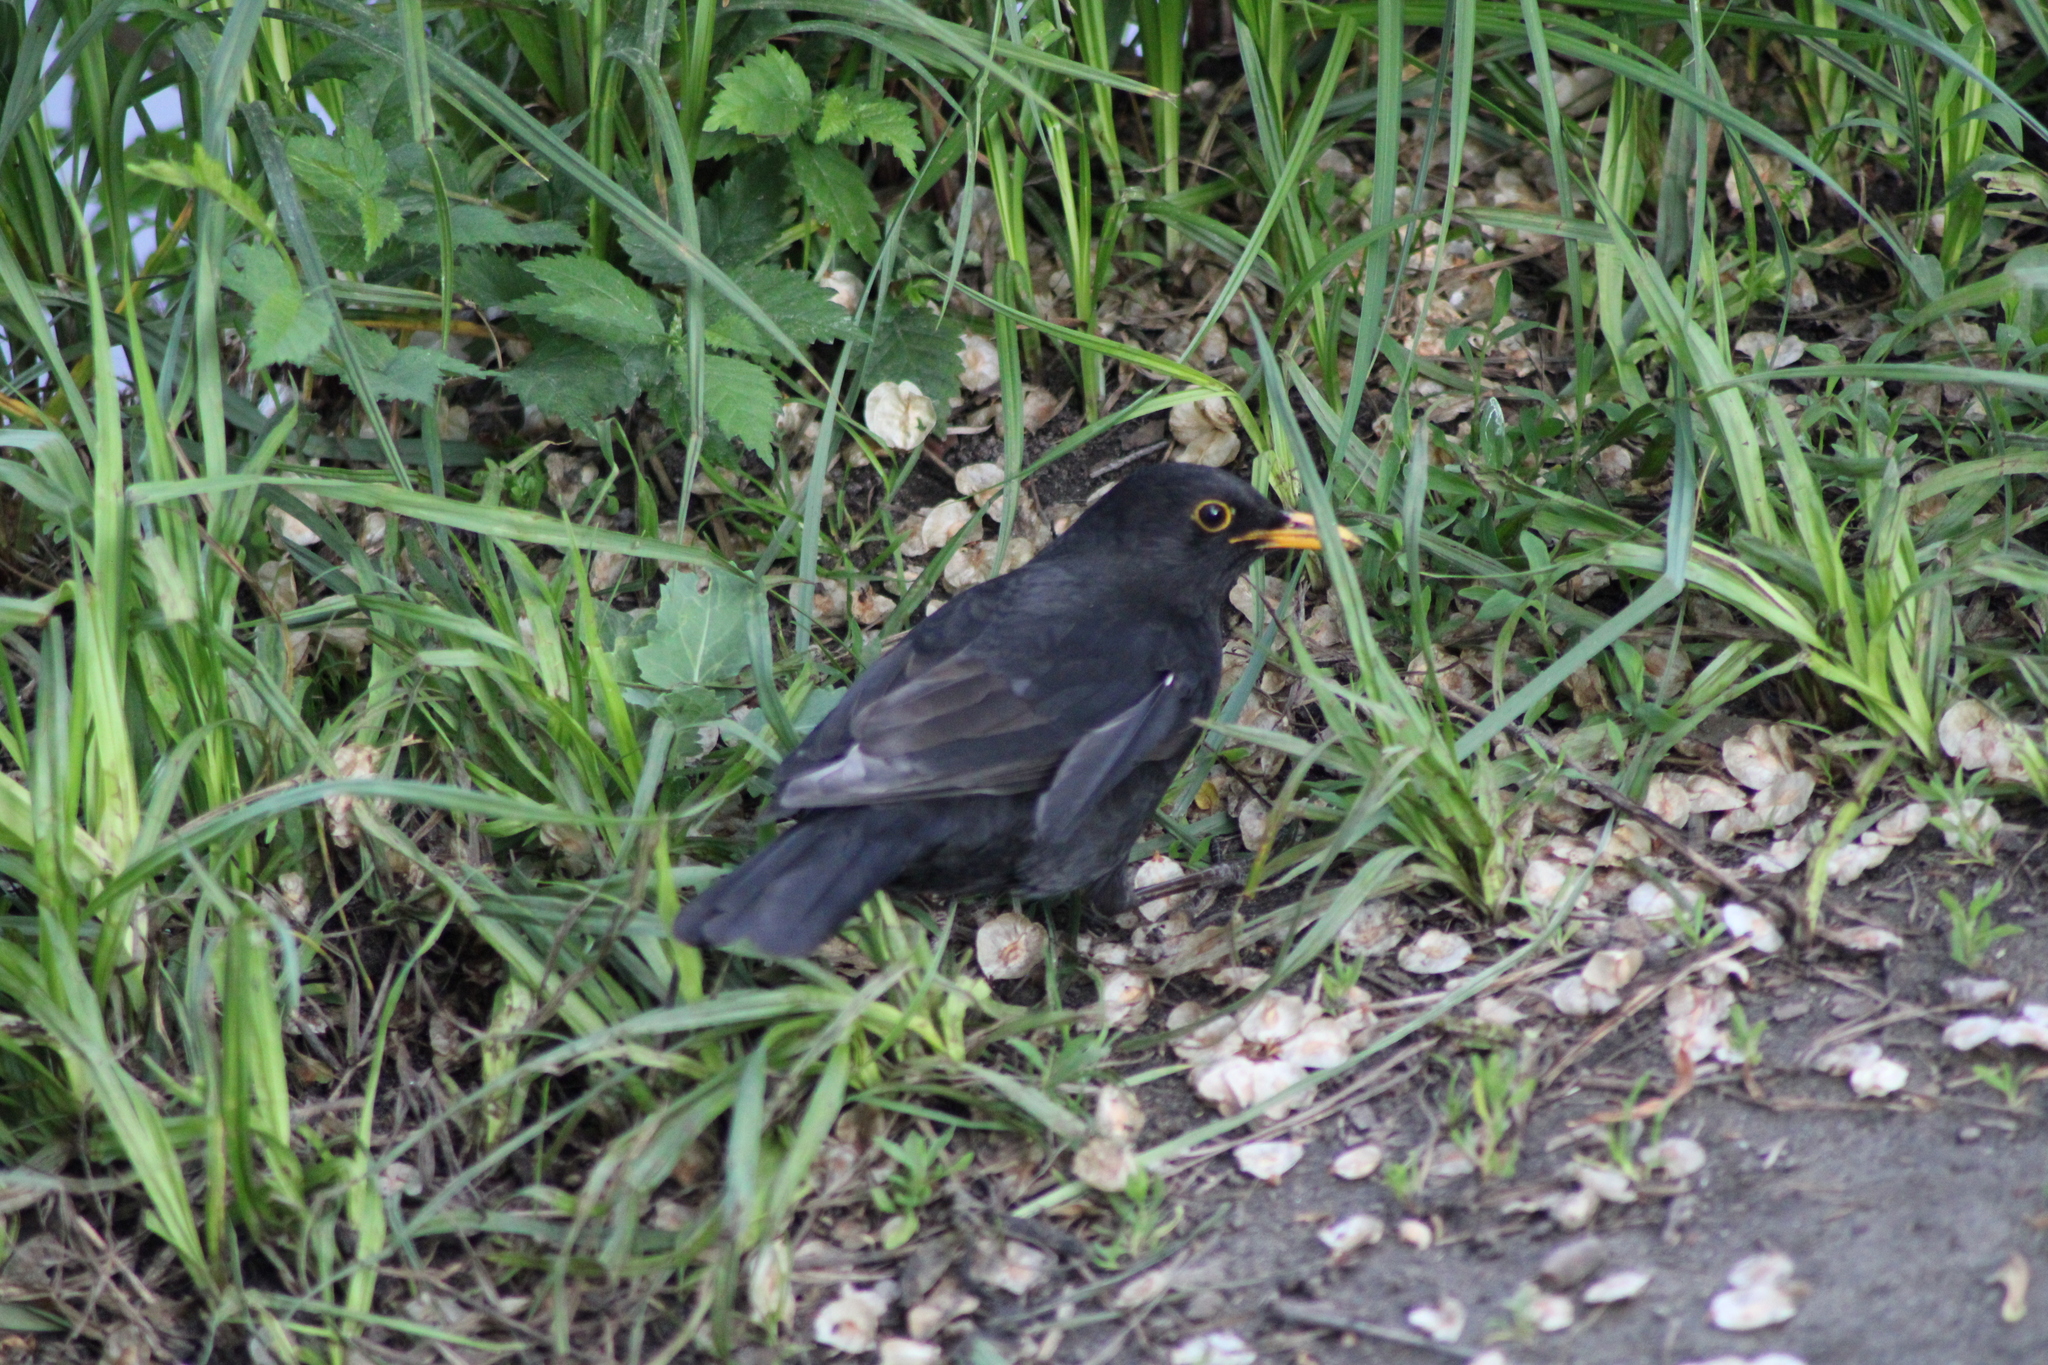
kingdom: Animalia
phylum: Chordata
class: Aves
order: Passeriformes
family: Turdidae
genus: Turdus
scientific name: Turdus merula
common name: Common blackbird
